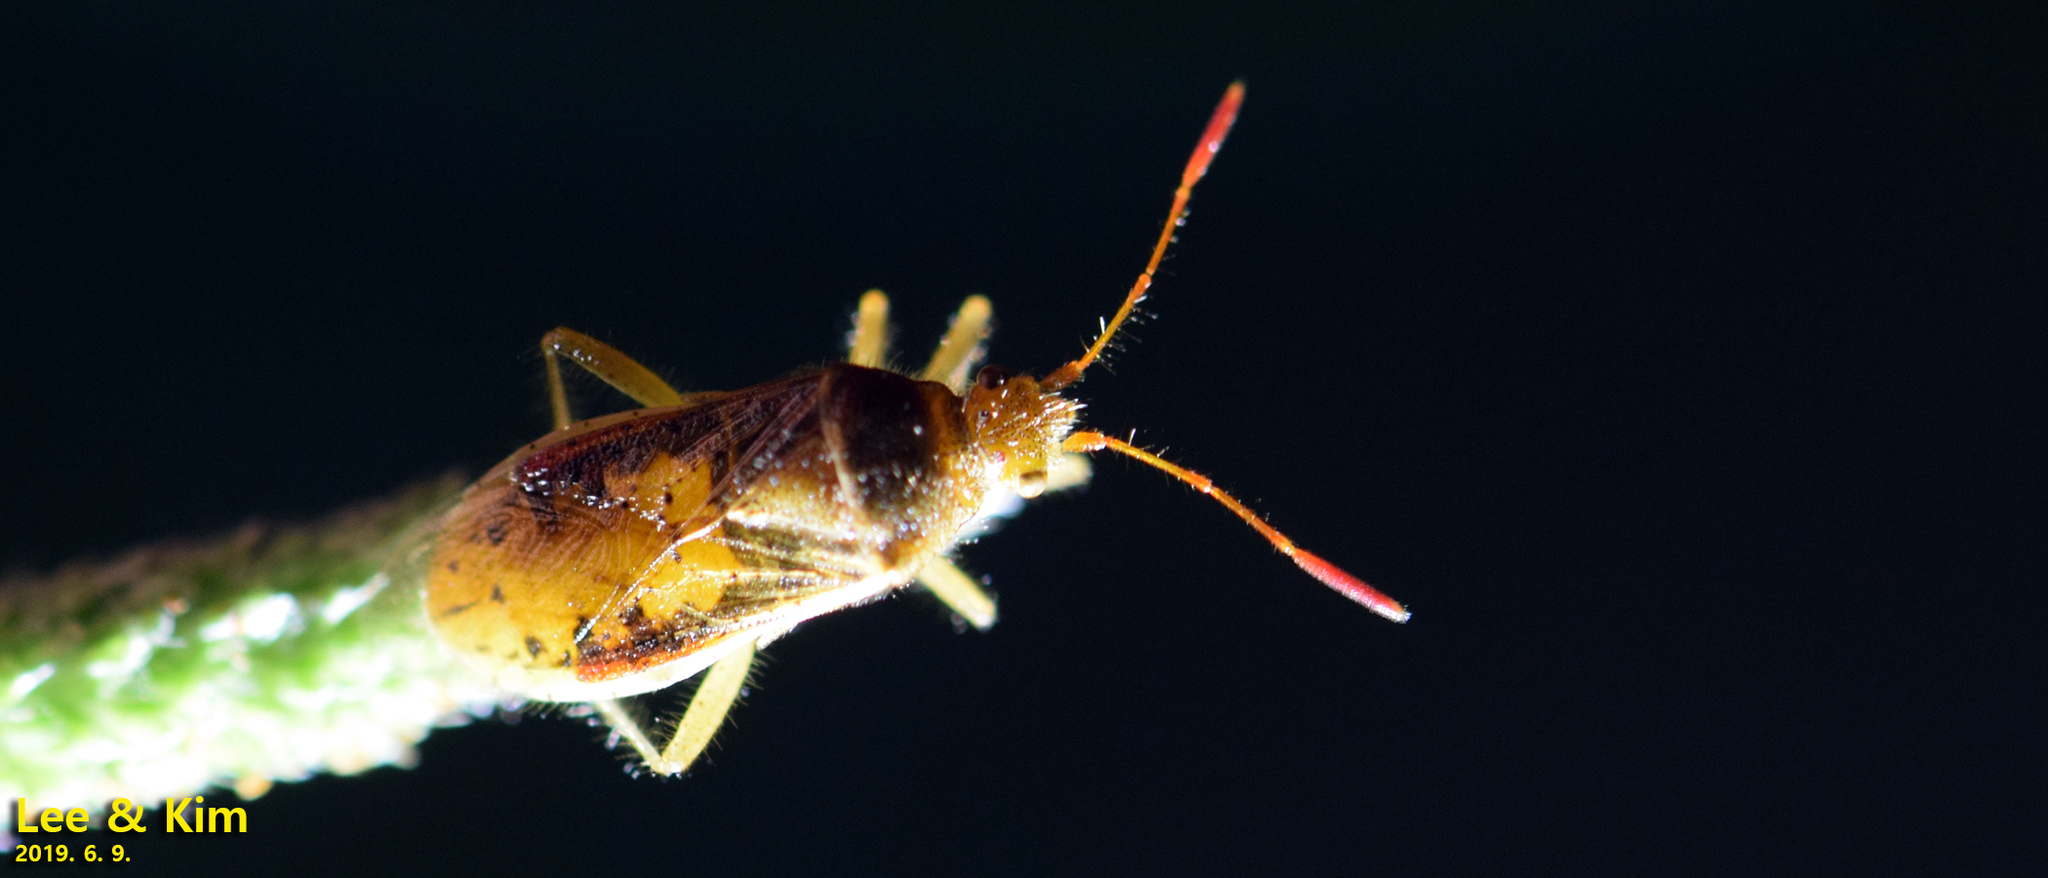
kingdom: Animalia
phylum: Arthropoda
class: Insecta
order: Hemiptera
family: Rhopalidae
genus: Rhopalus
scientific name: Rhopalus maculatus
